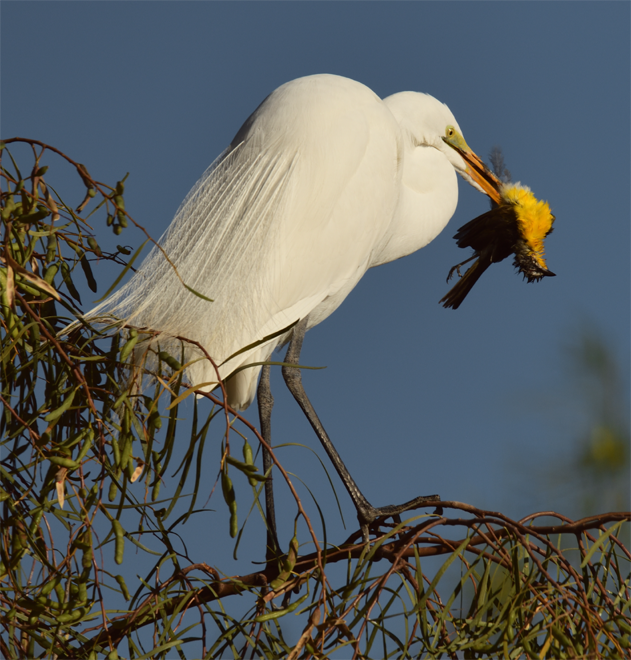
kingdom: Animalia
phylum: Chordata
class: Aves
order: Pelecaniformes
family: Ardeidae
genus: Ardea
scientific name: Ardea alba
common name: Great egret
